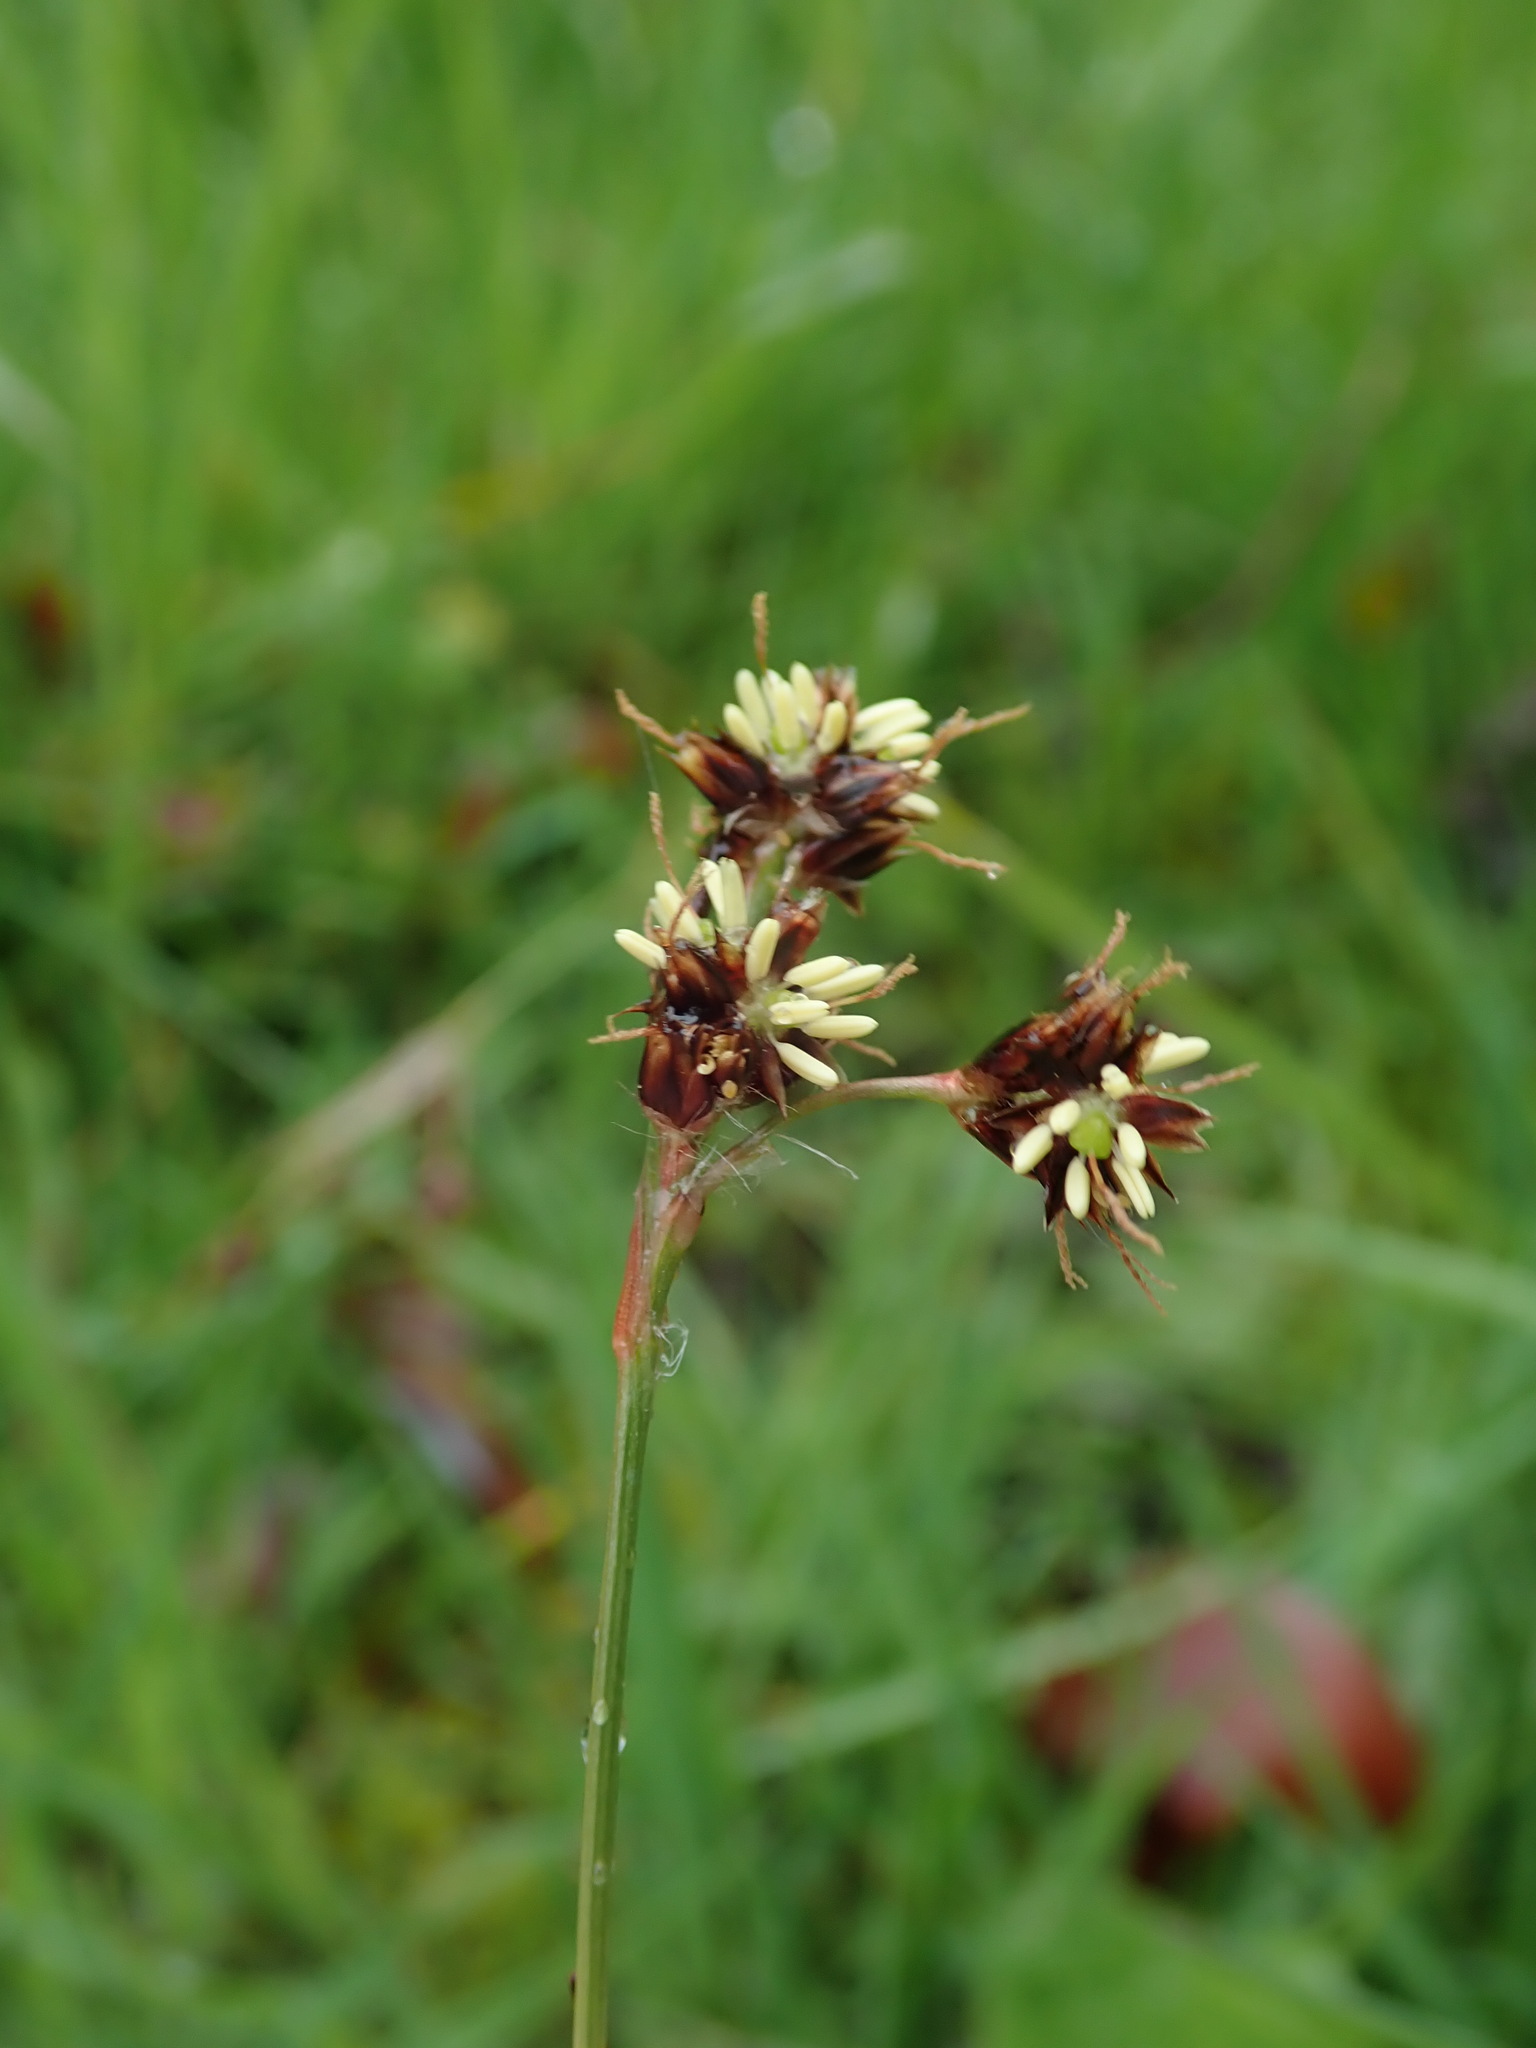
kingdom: Plantae
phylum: Tracheophyta
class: Liliopsida
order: Poales
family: Juncaceae
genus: Luzula
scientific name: Luzula campestris
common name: Field wood-rush
